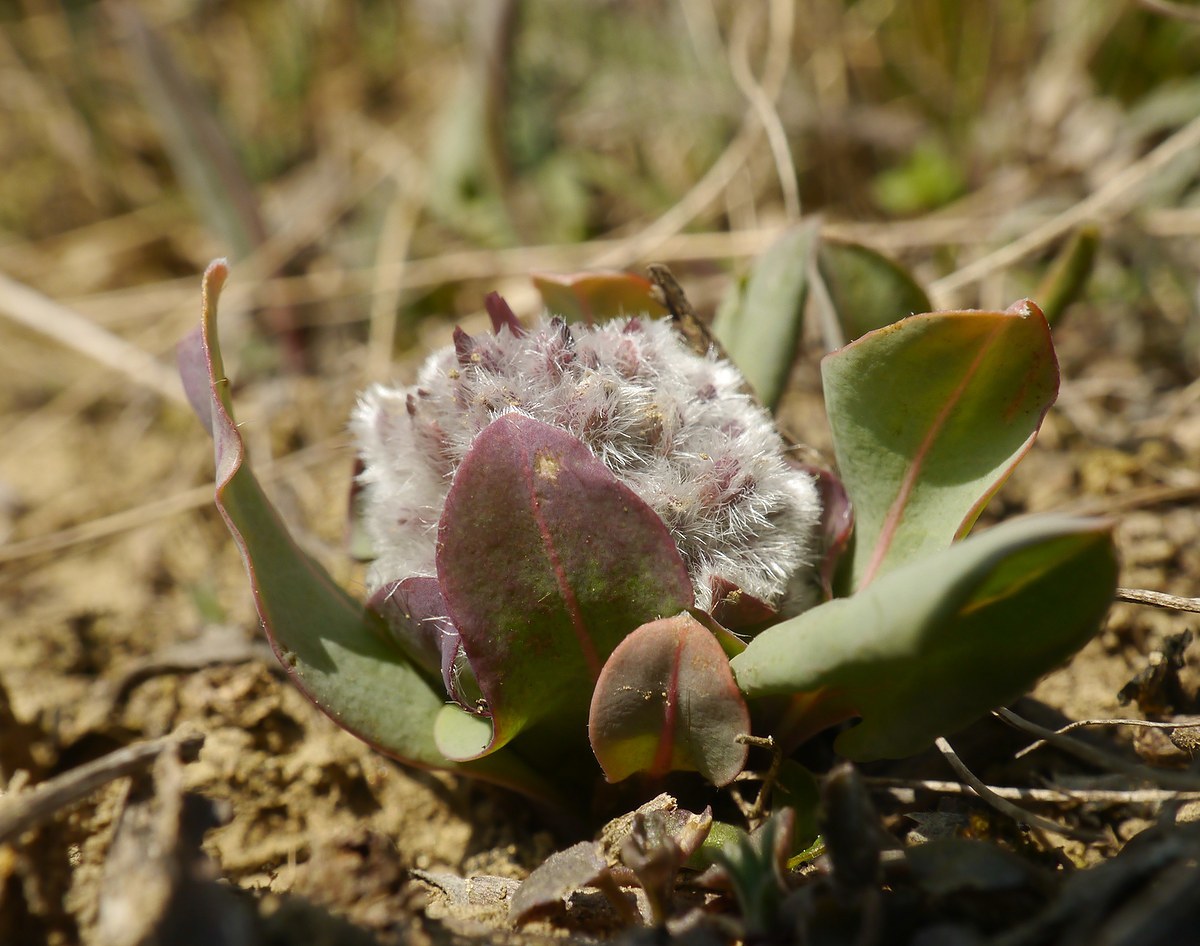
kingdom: Plantae
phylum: Tracheophyta
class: Magnoliopsida
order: Boraginales
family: Boraginaceae
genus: Rindera
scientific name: Rindera tetraspis
